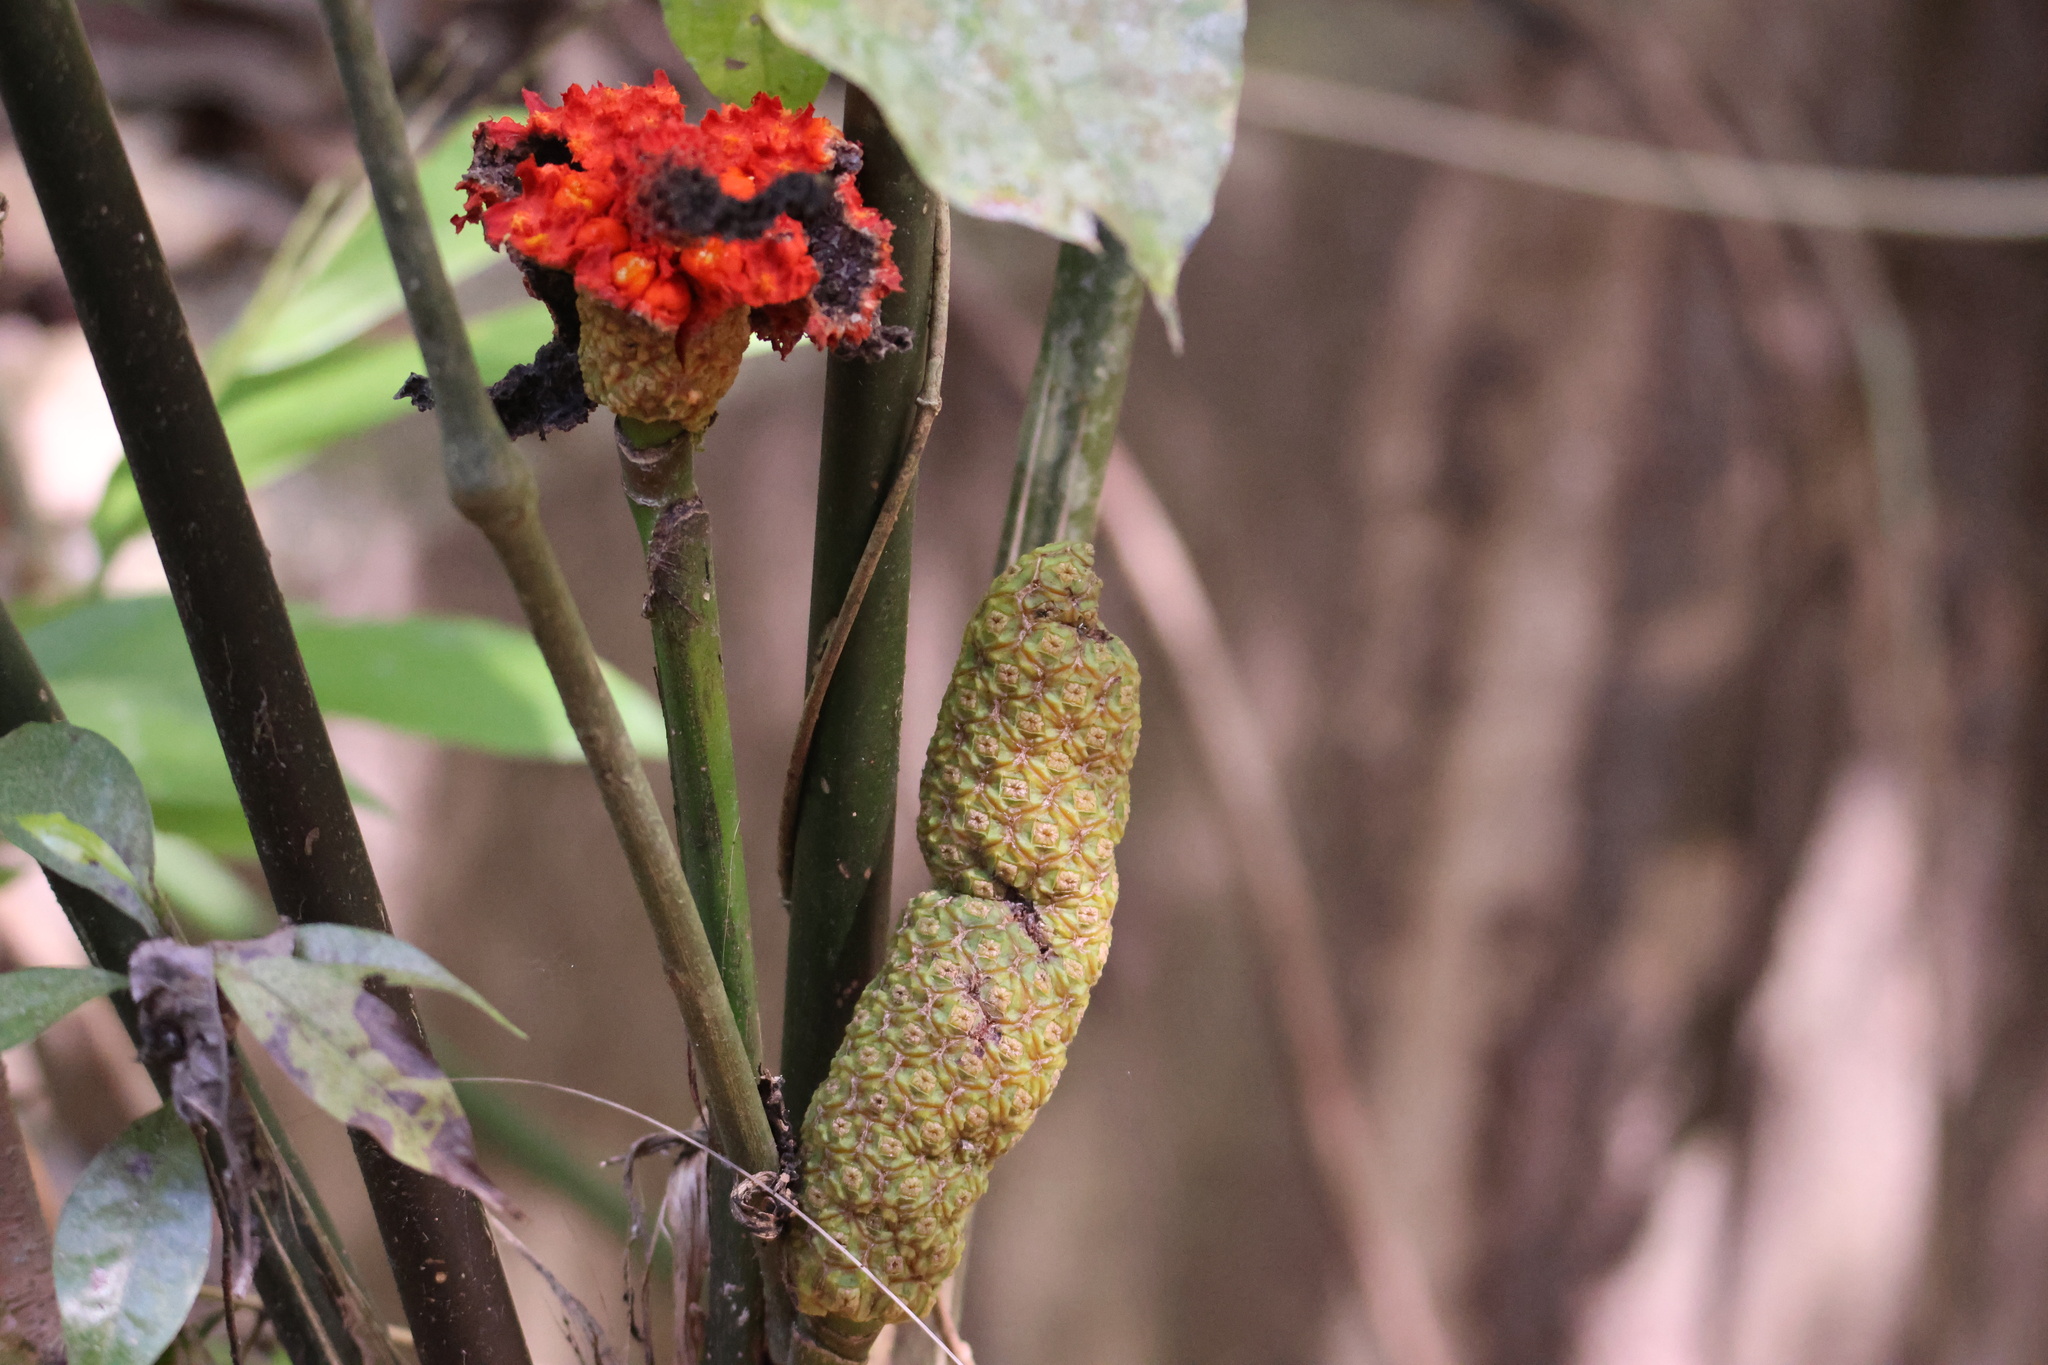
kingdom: Plantae
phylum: Tracheophyta
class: Liliopsida
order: Pandanales
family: Cyclanthaceae
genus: Carludovica
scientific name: Carludovica palmata
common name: Panama hat plant
